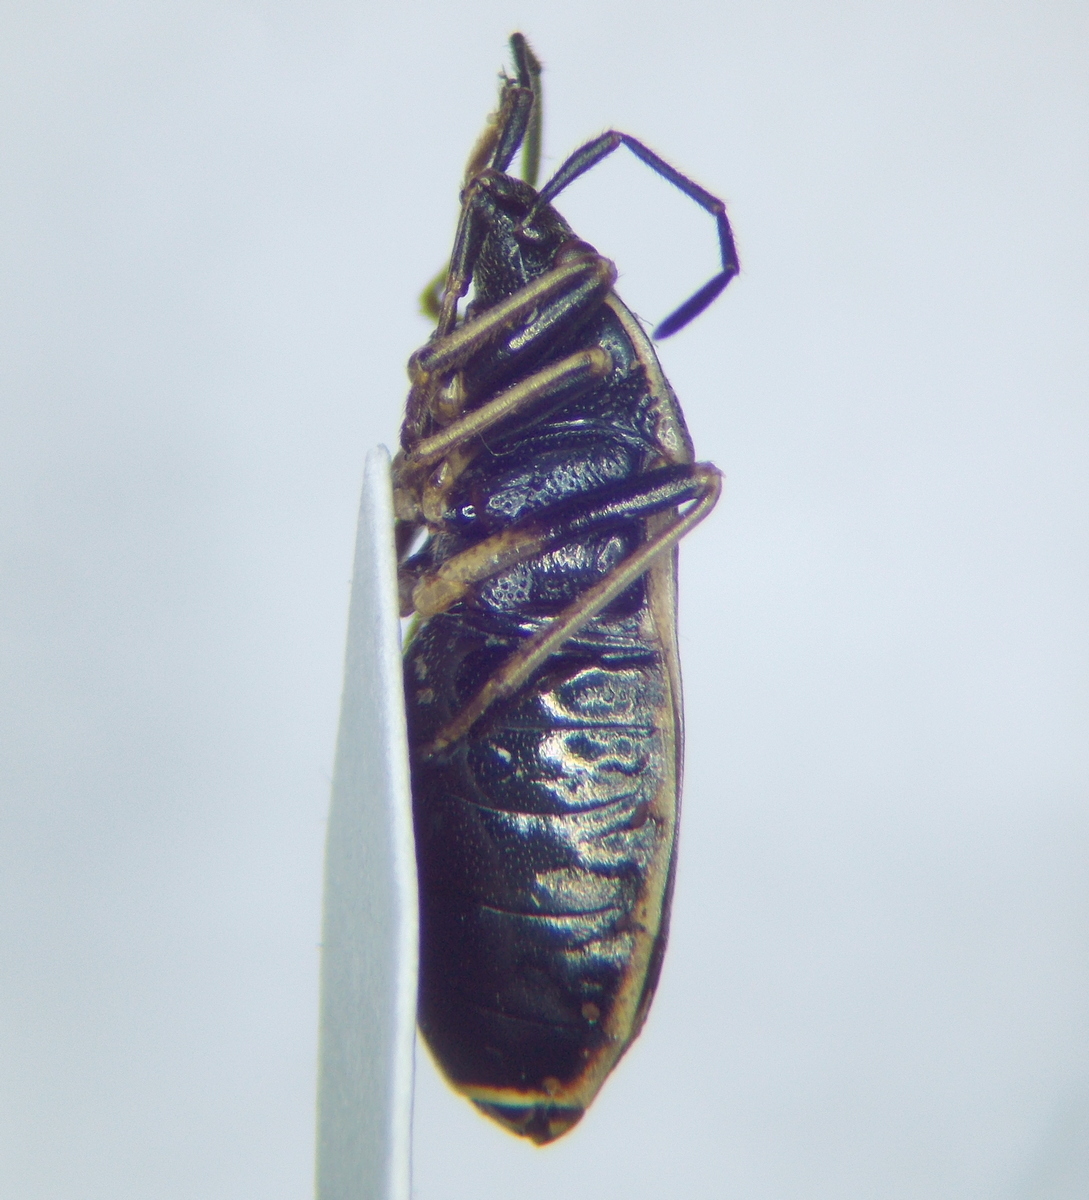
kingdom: Animalia
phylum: Arthropoda
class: Insecta
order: Hemiptera
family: Pyrrhocoridae
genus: Pyrrhocoris
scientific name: Pyrrhocoris sinuaticollis
